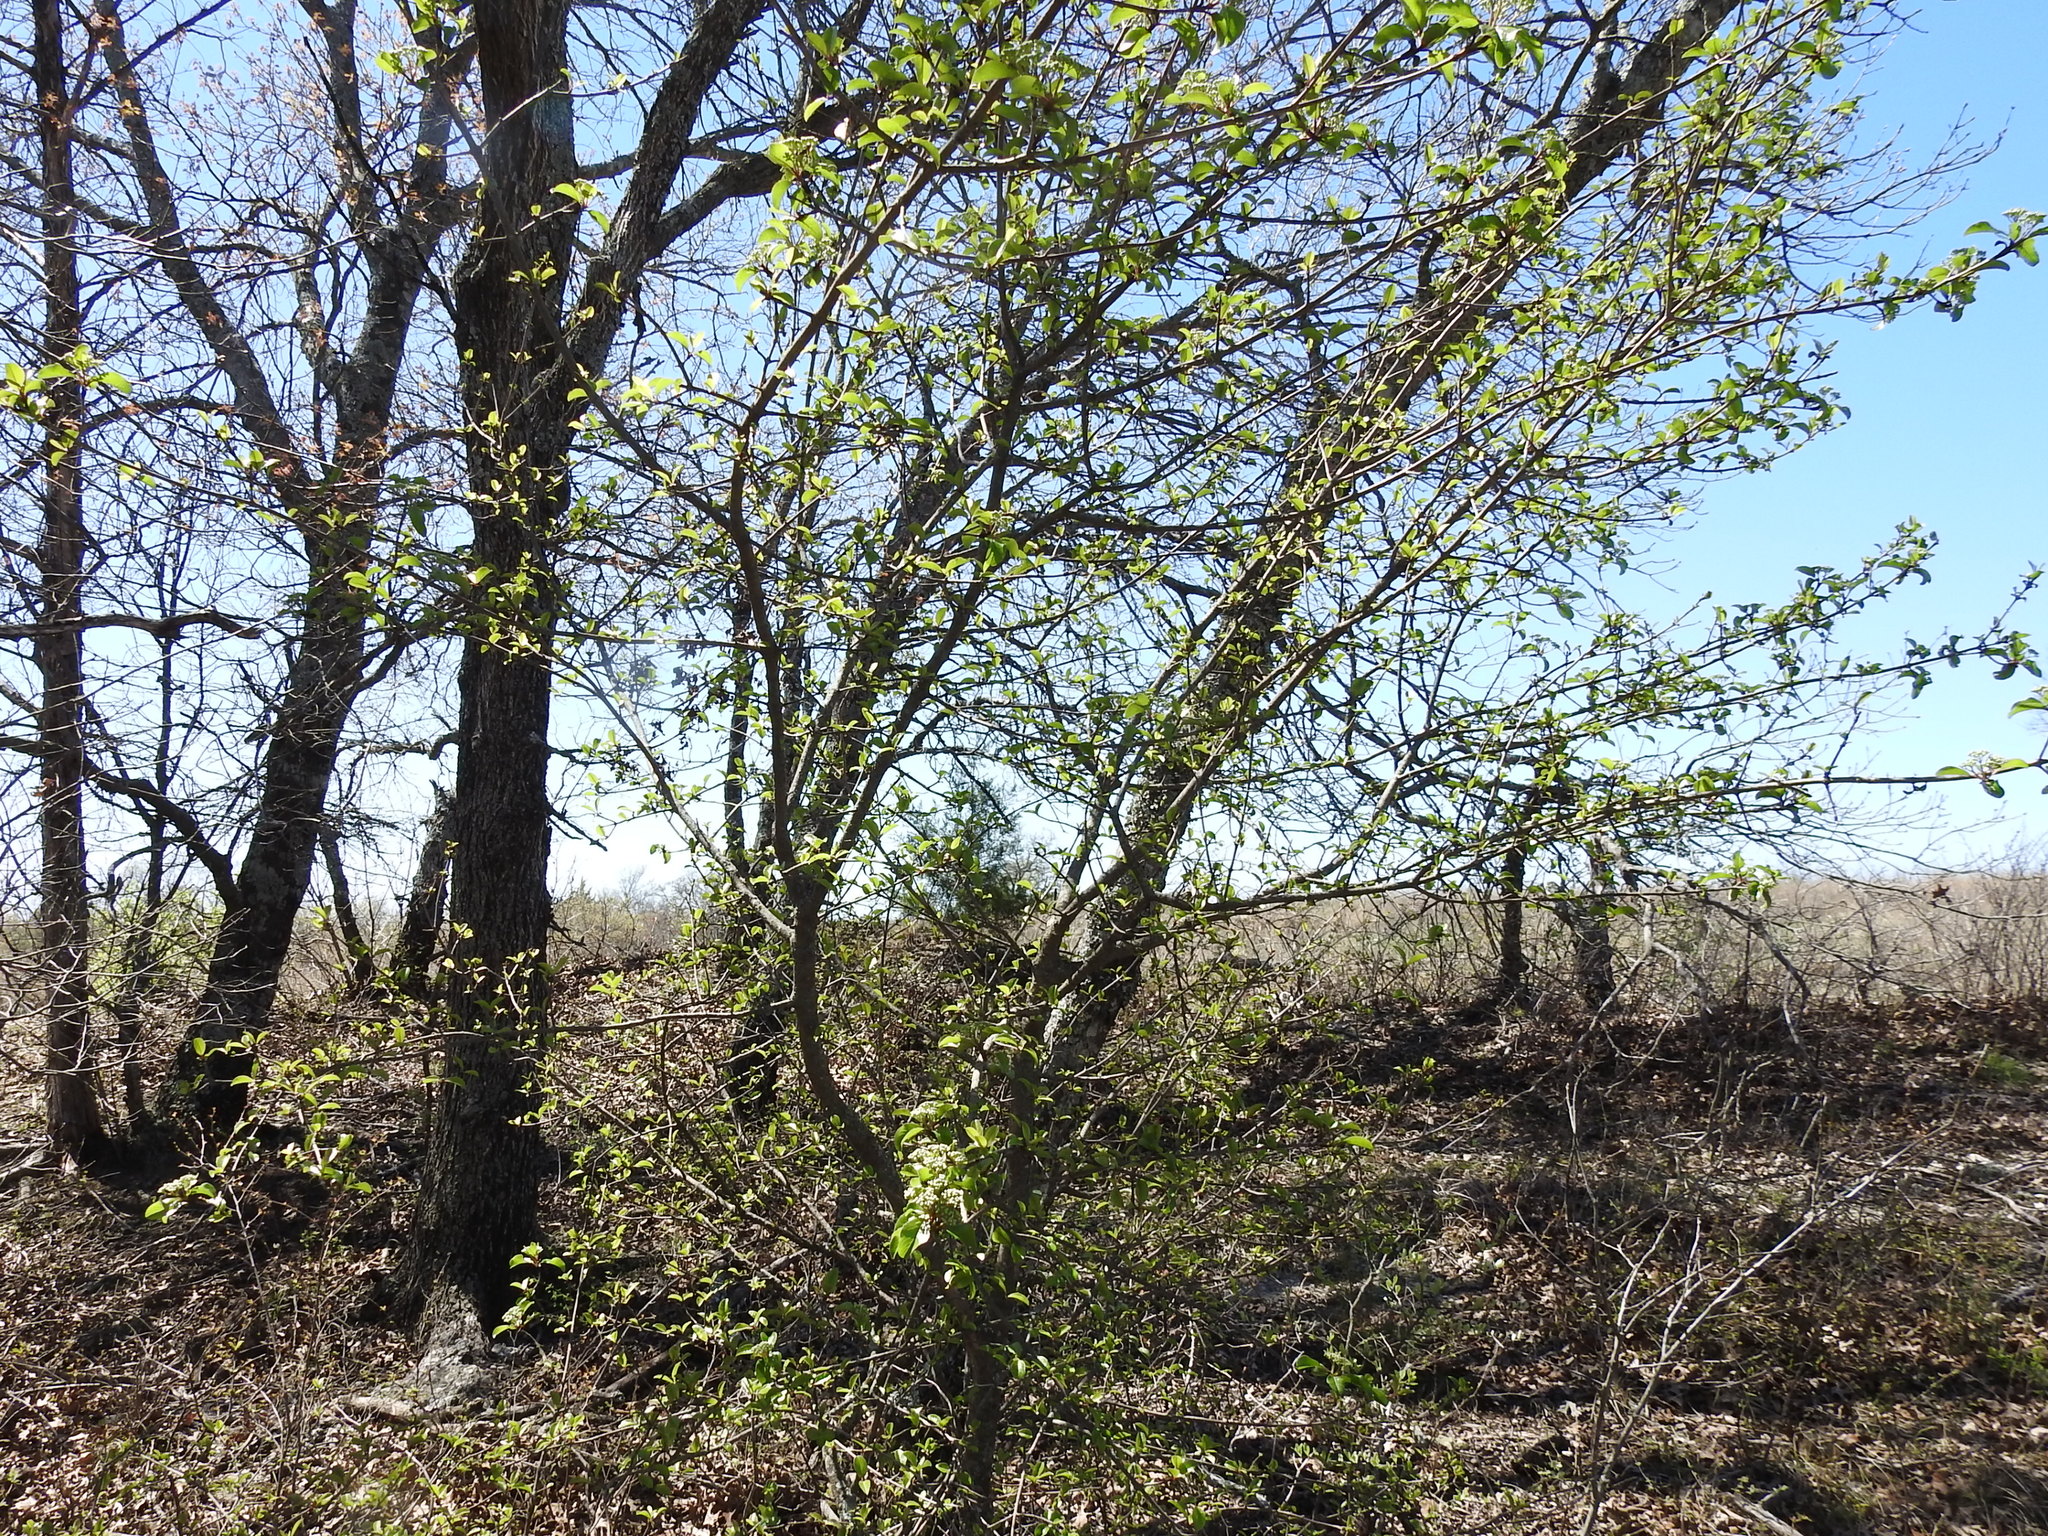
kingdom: Plantae
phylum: Tracheophyta
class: Magnoliopsida
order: Dipsacales
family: Viburnaceae
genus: Viburnum
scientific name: Viburnum rufidulum
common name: Blue haw
